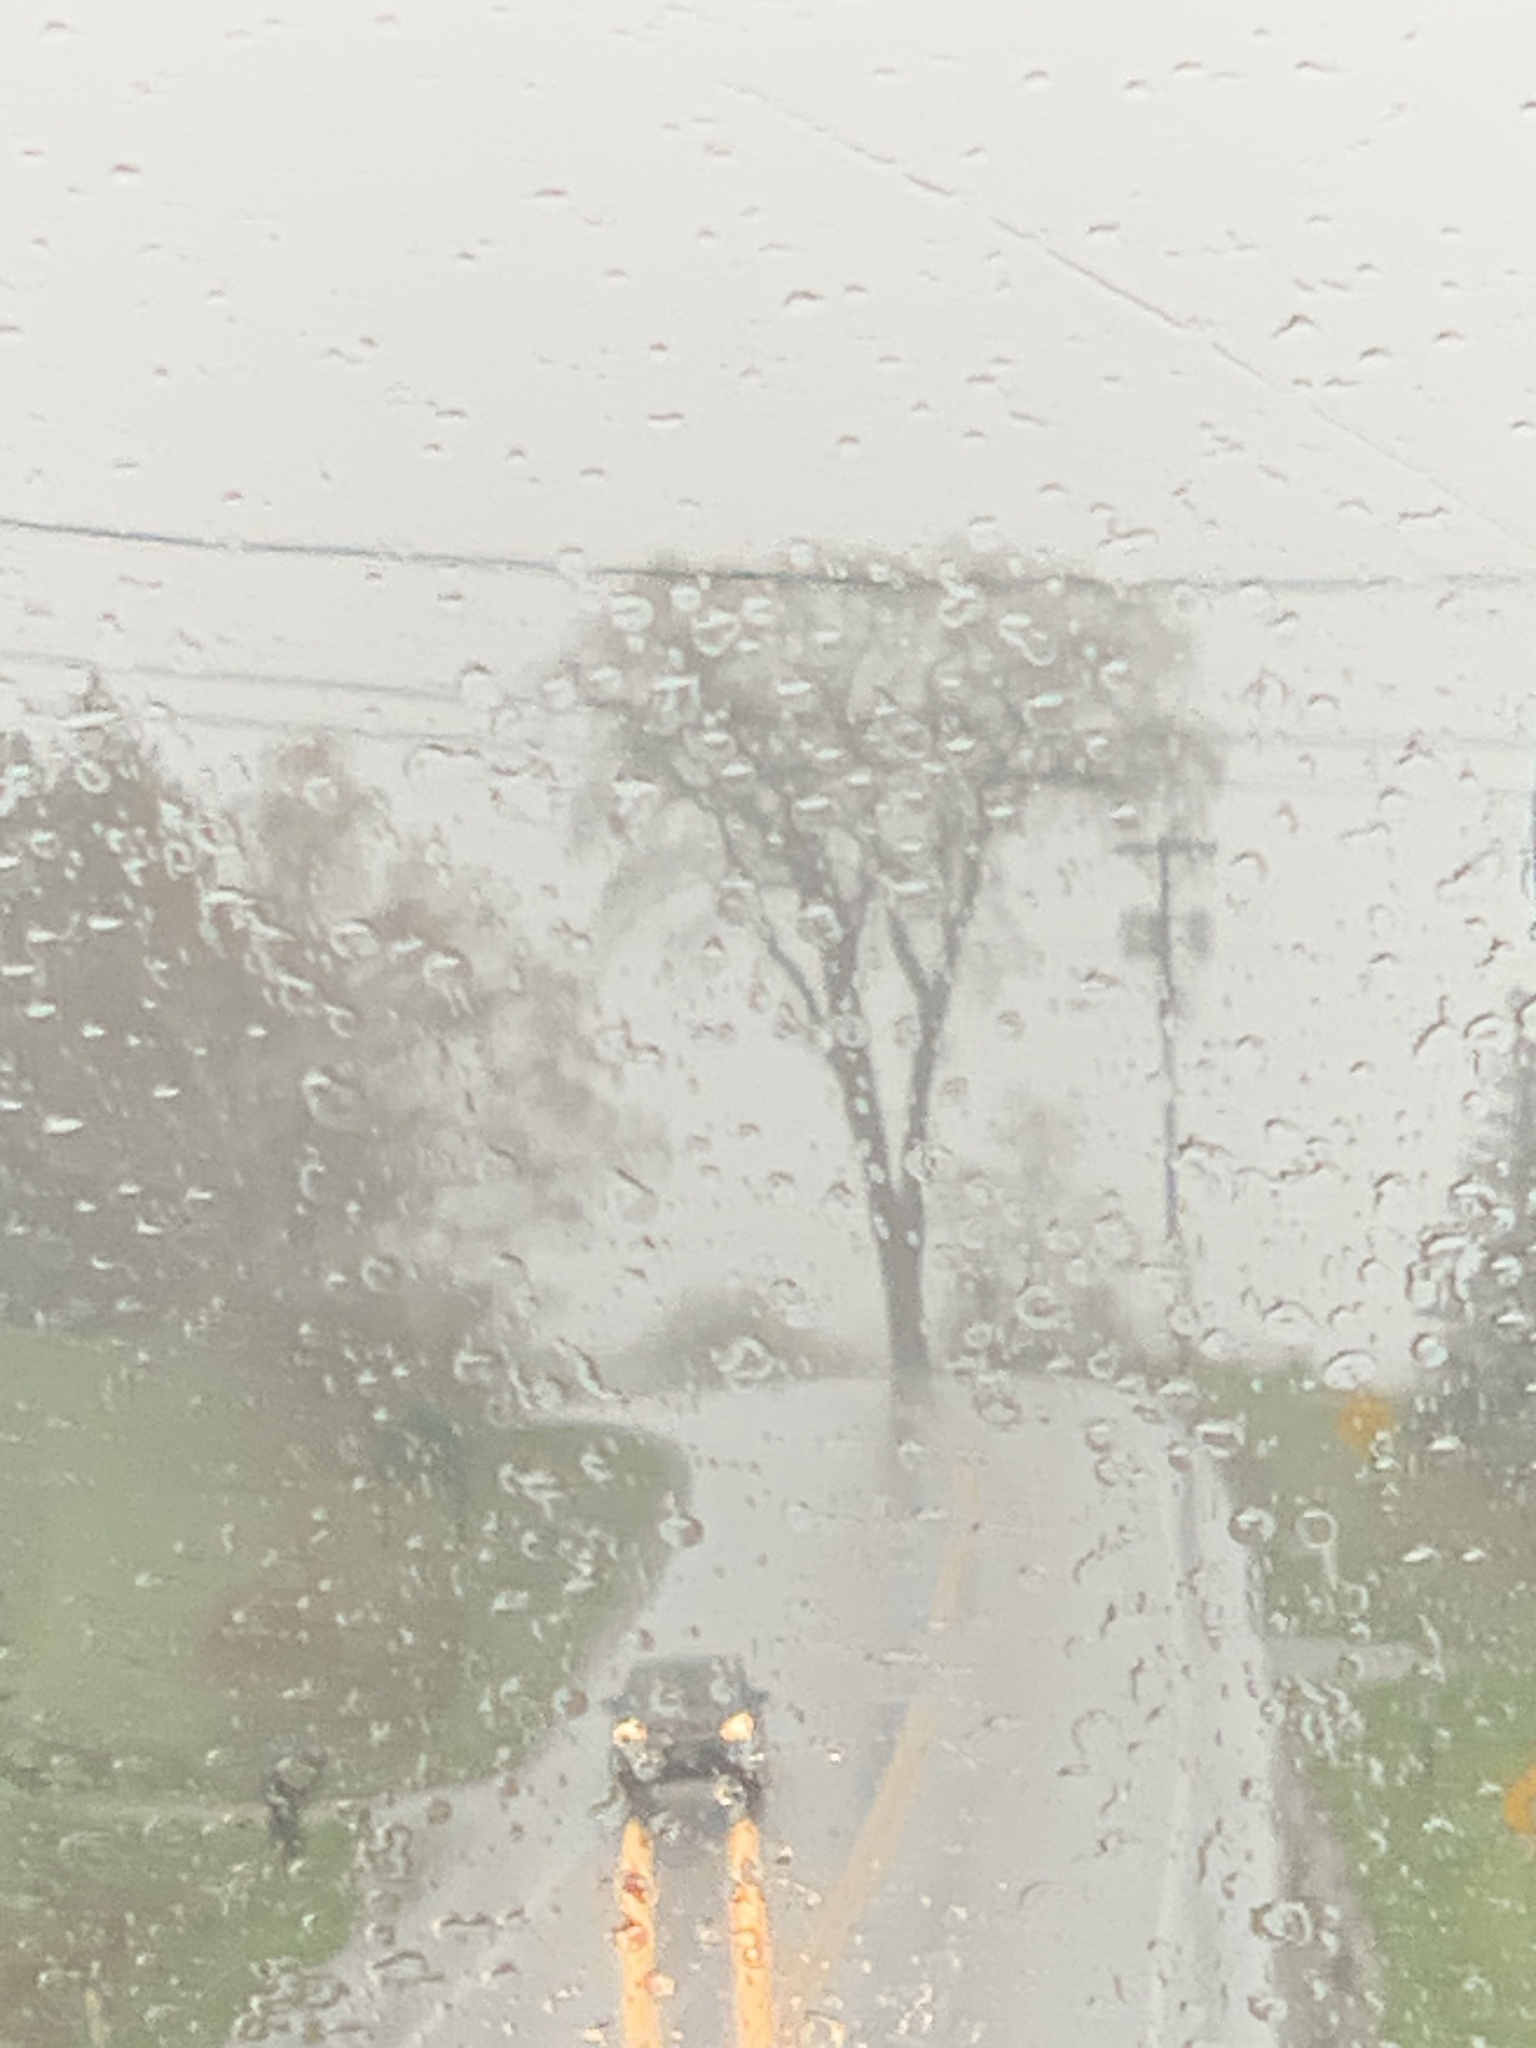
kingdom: Plantae
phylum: Tracheophyta
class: Magnoliopsida
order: Rosales
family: Ulmaceae
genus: Ulmus
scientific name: Ulmus americana
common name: American elm
